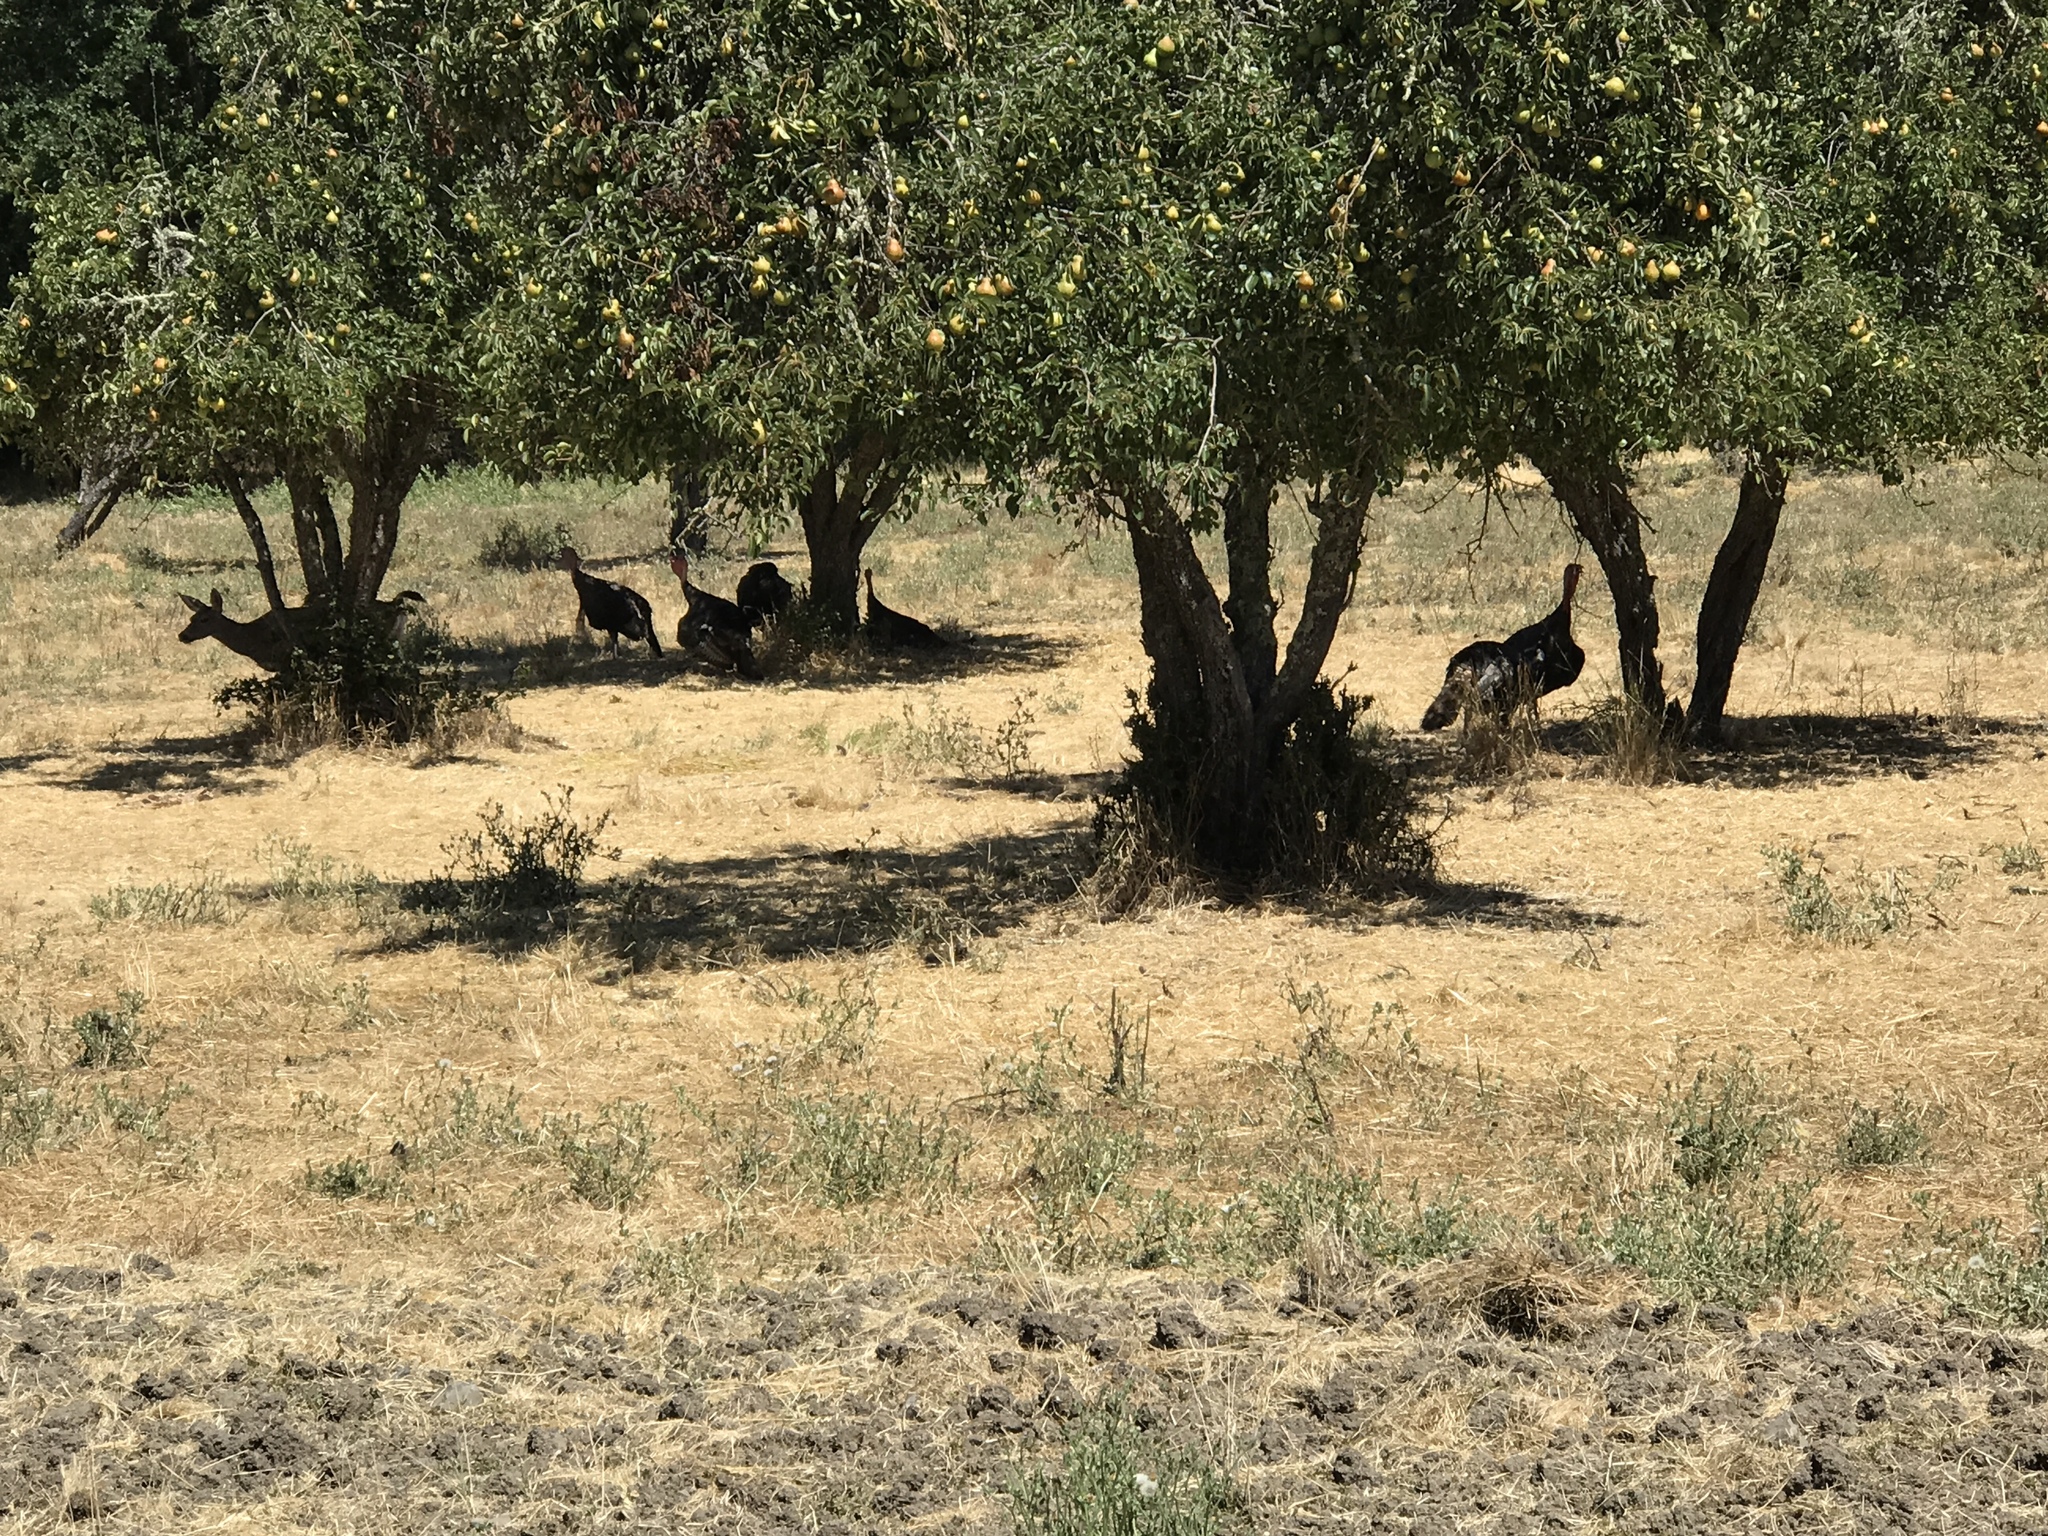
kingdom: Animalia
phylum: Chordata
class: Aves
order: Galliformes
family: Phasianidae
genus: Meleagris
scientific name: Meleagris gallopavo
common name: Wild turkey
